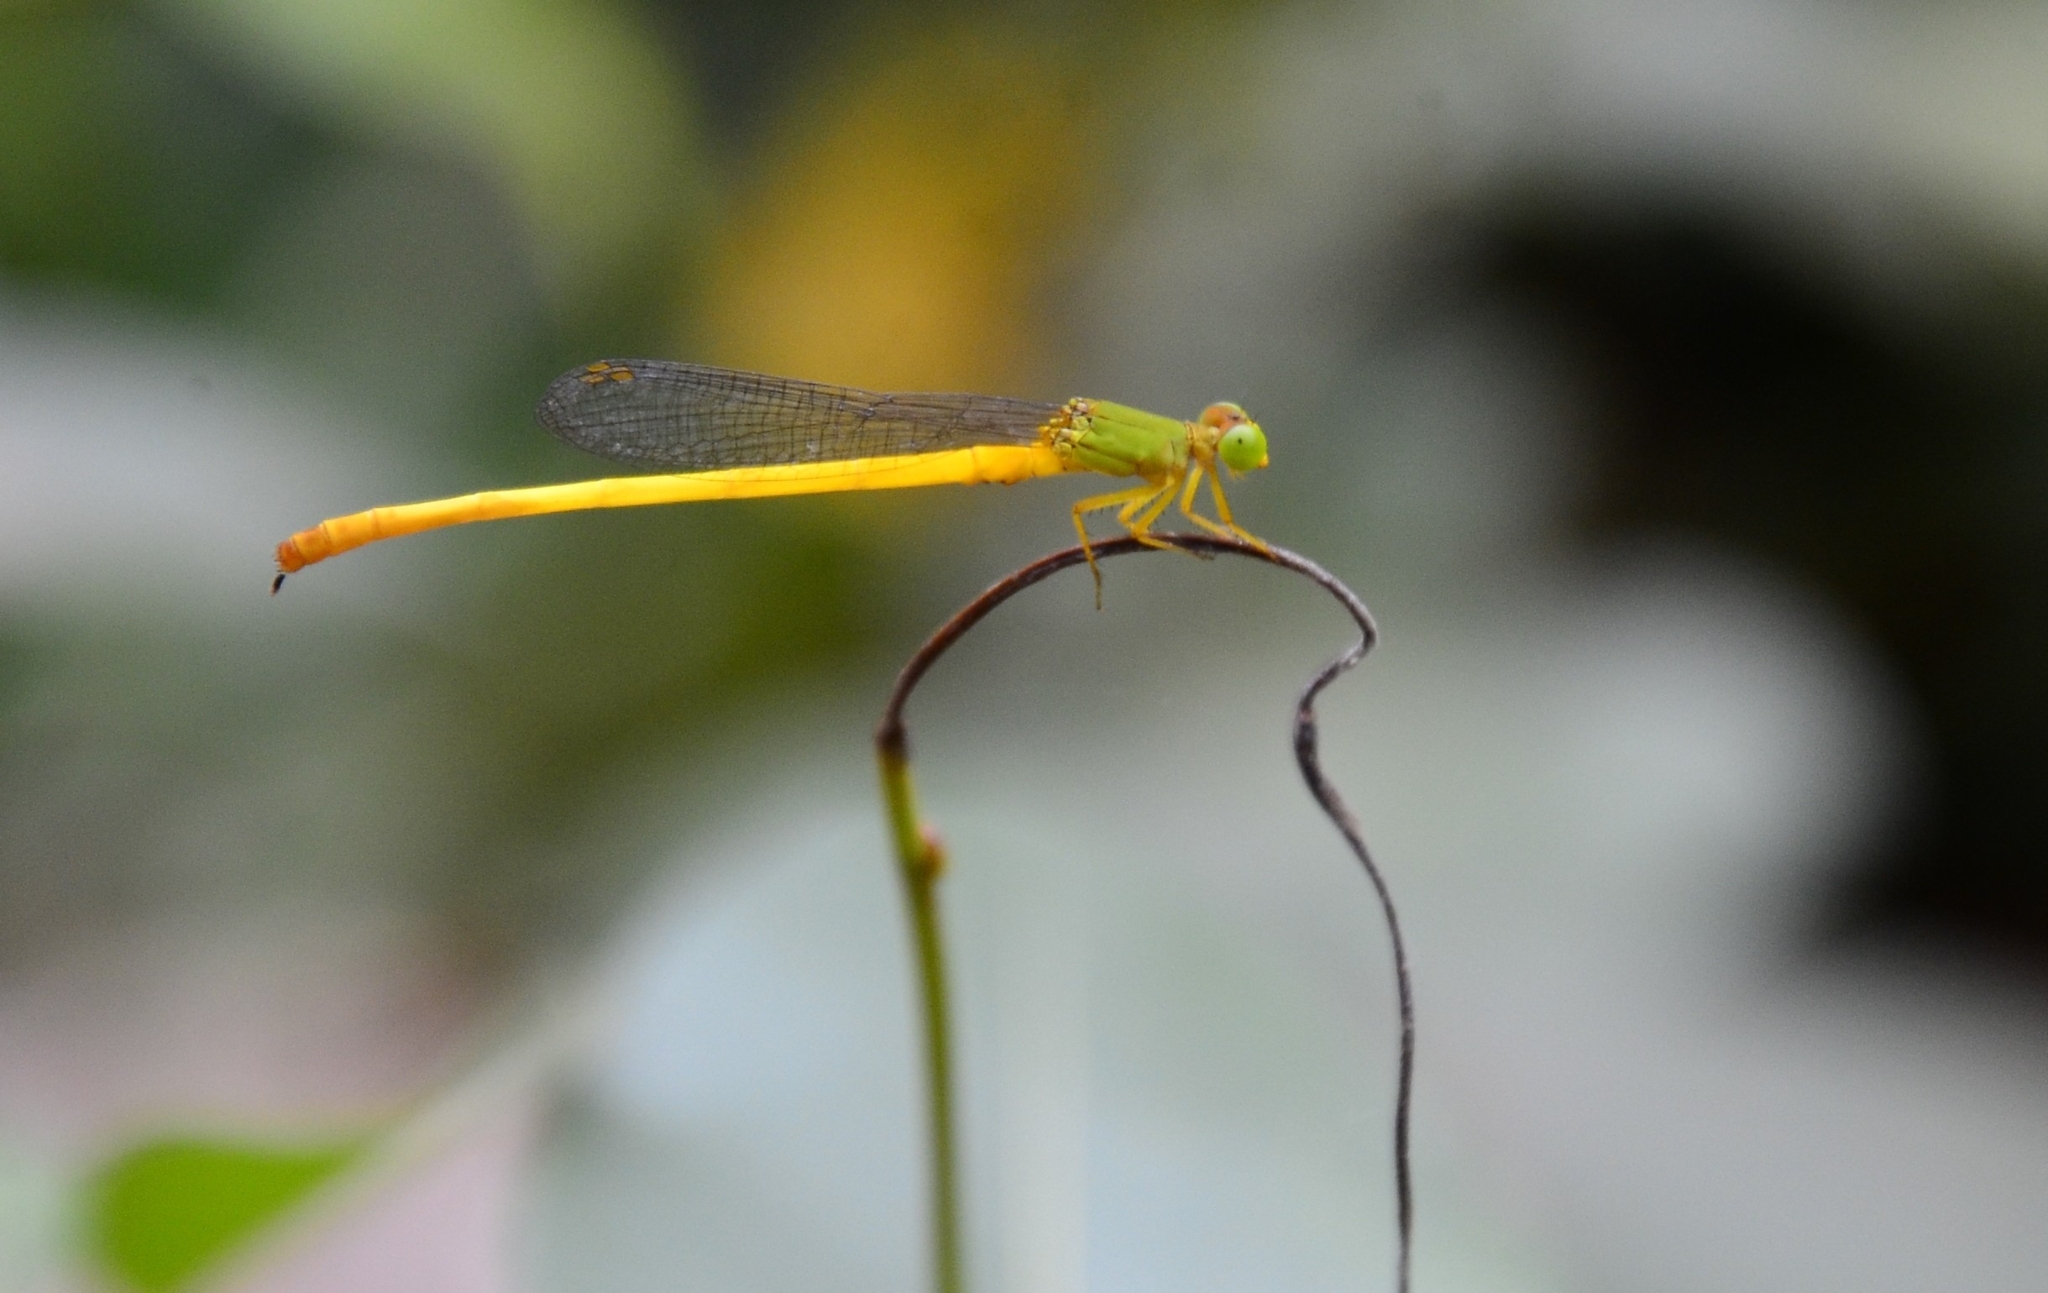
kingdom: Animalia
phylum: Arthropoda
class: Insecta
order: Odonata
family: Coenagrionidae
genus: Ceriagrion
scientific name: Ceriagrion coromandelianum
